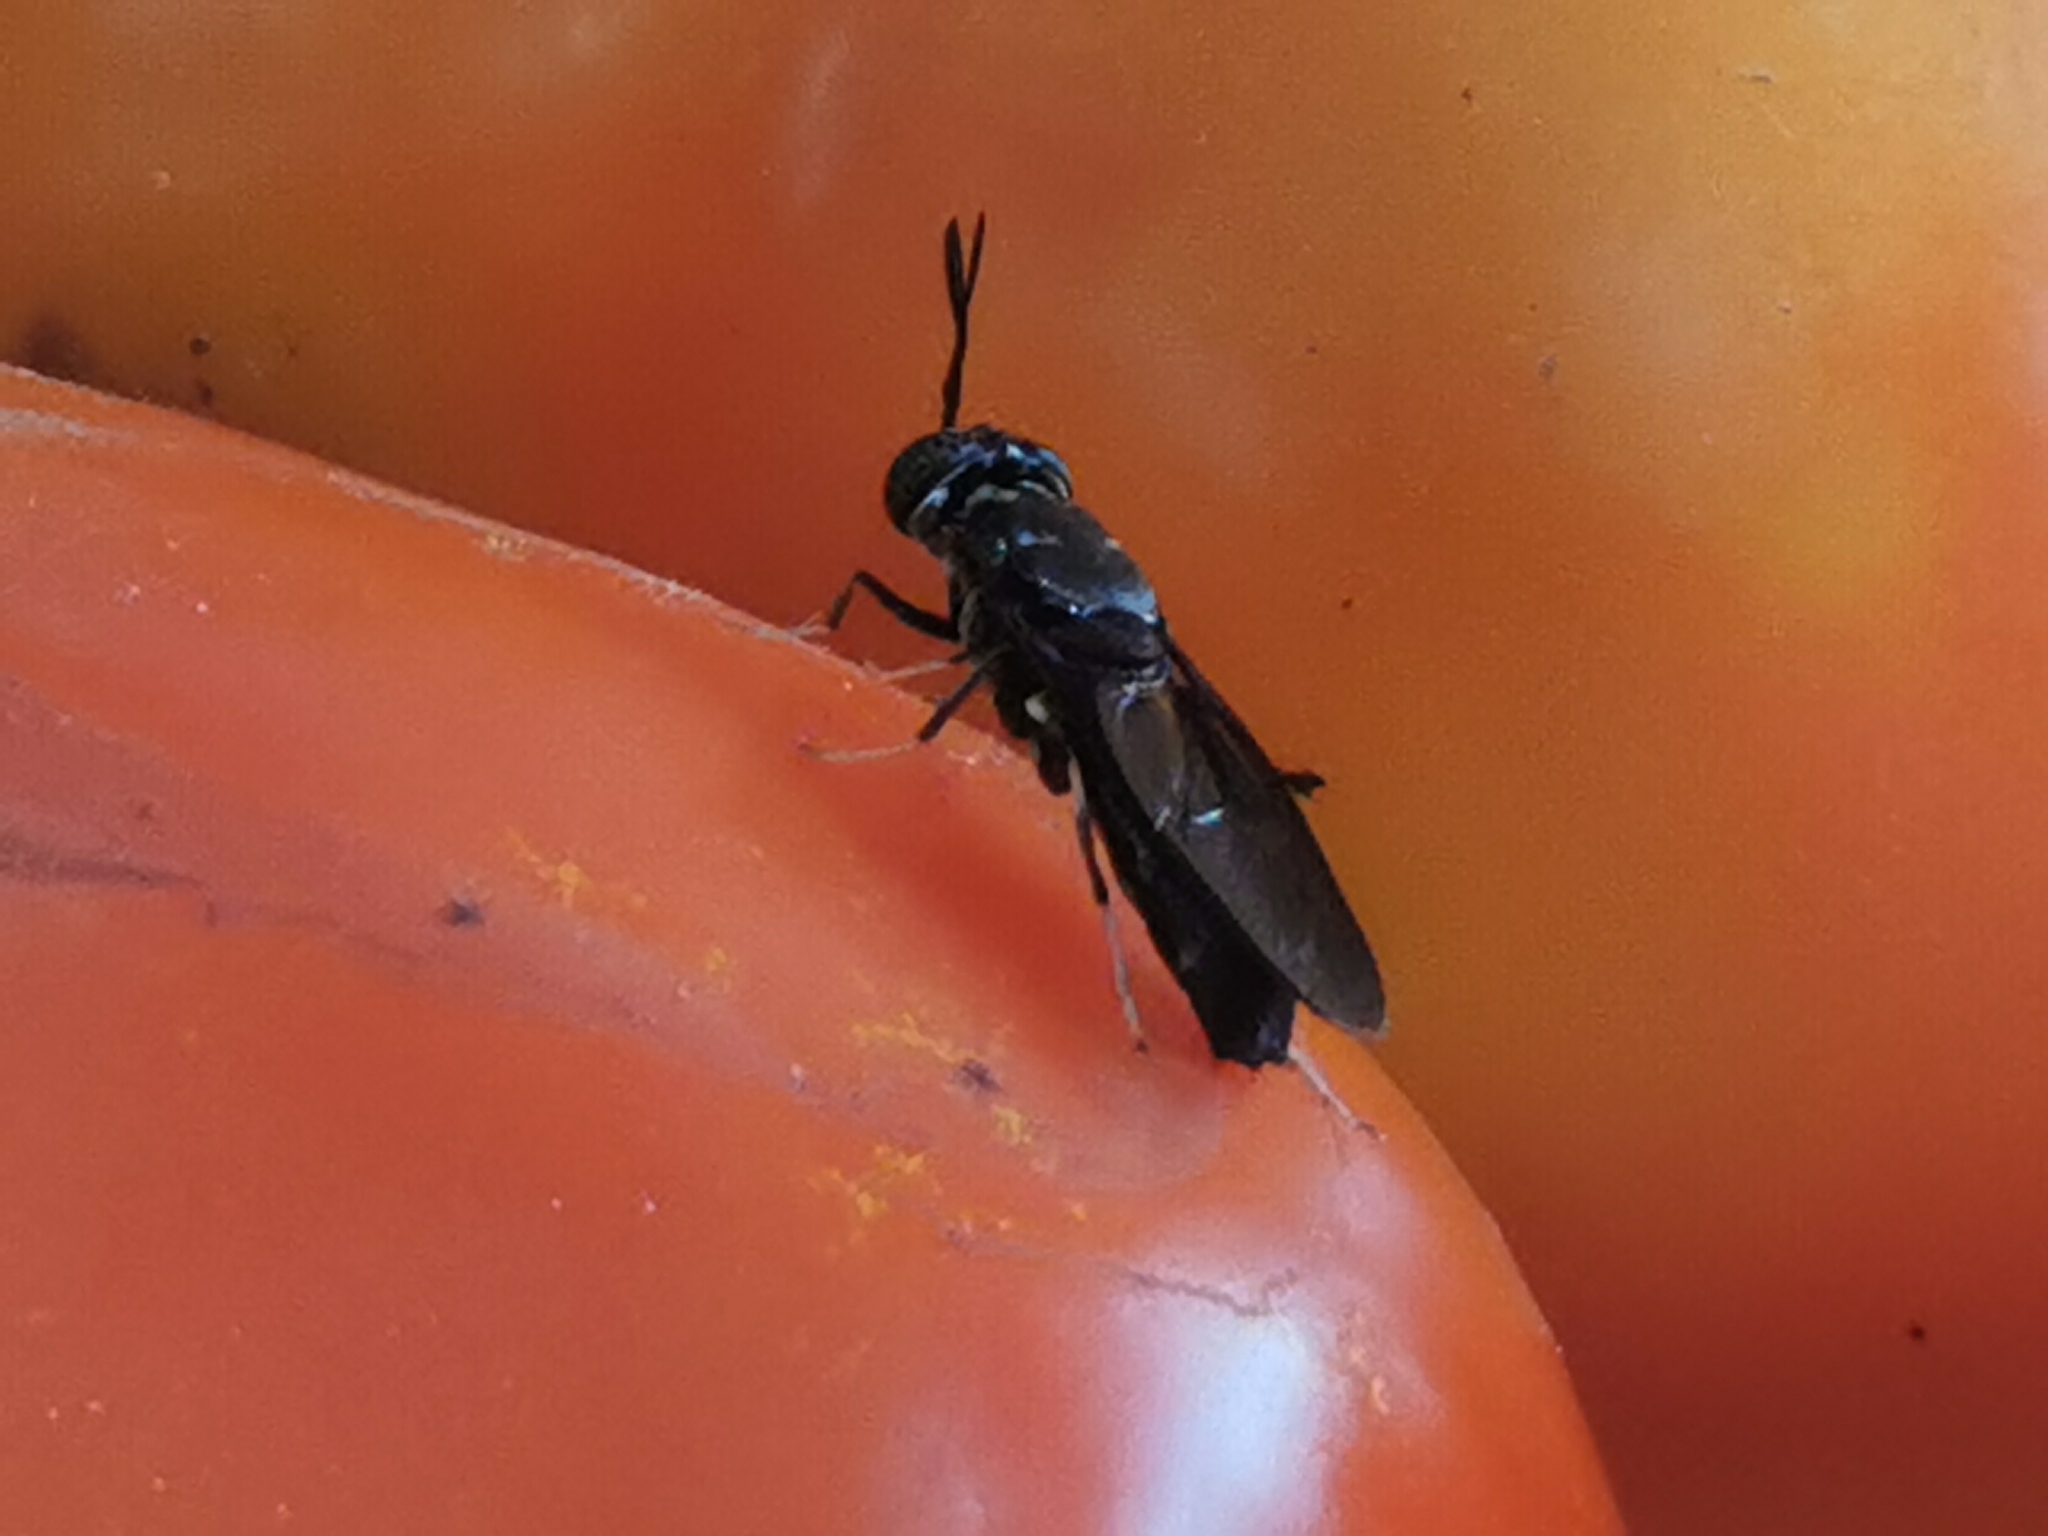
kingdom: Animalia
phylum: Arthropoda
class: Insecta
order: Diptera
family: Stratiomyidae
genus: Hermetia
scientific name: Hermetia illucens
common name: Black soldier fly
